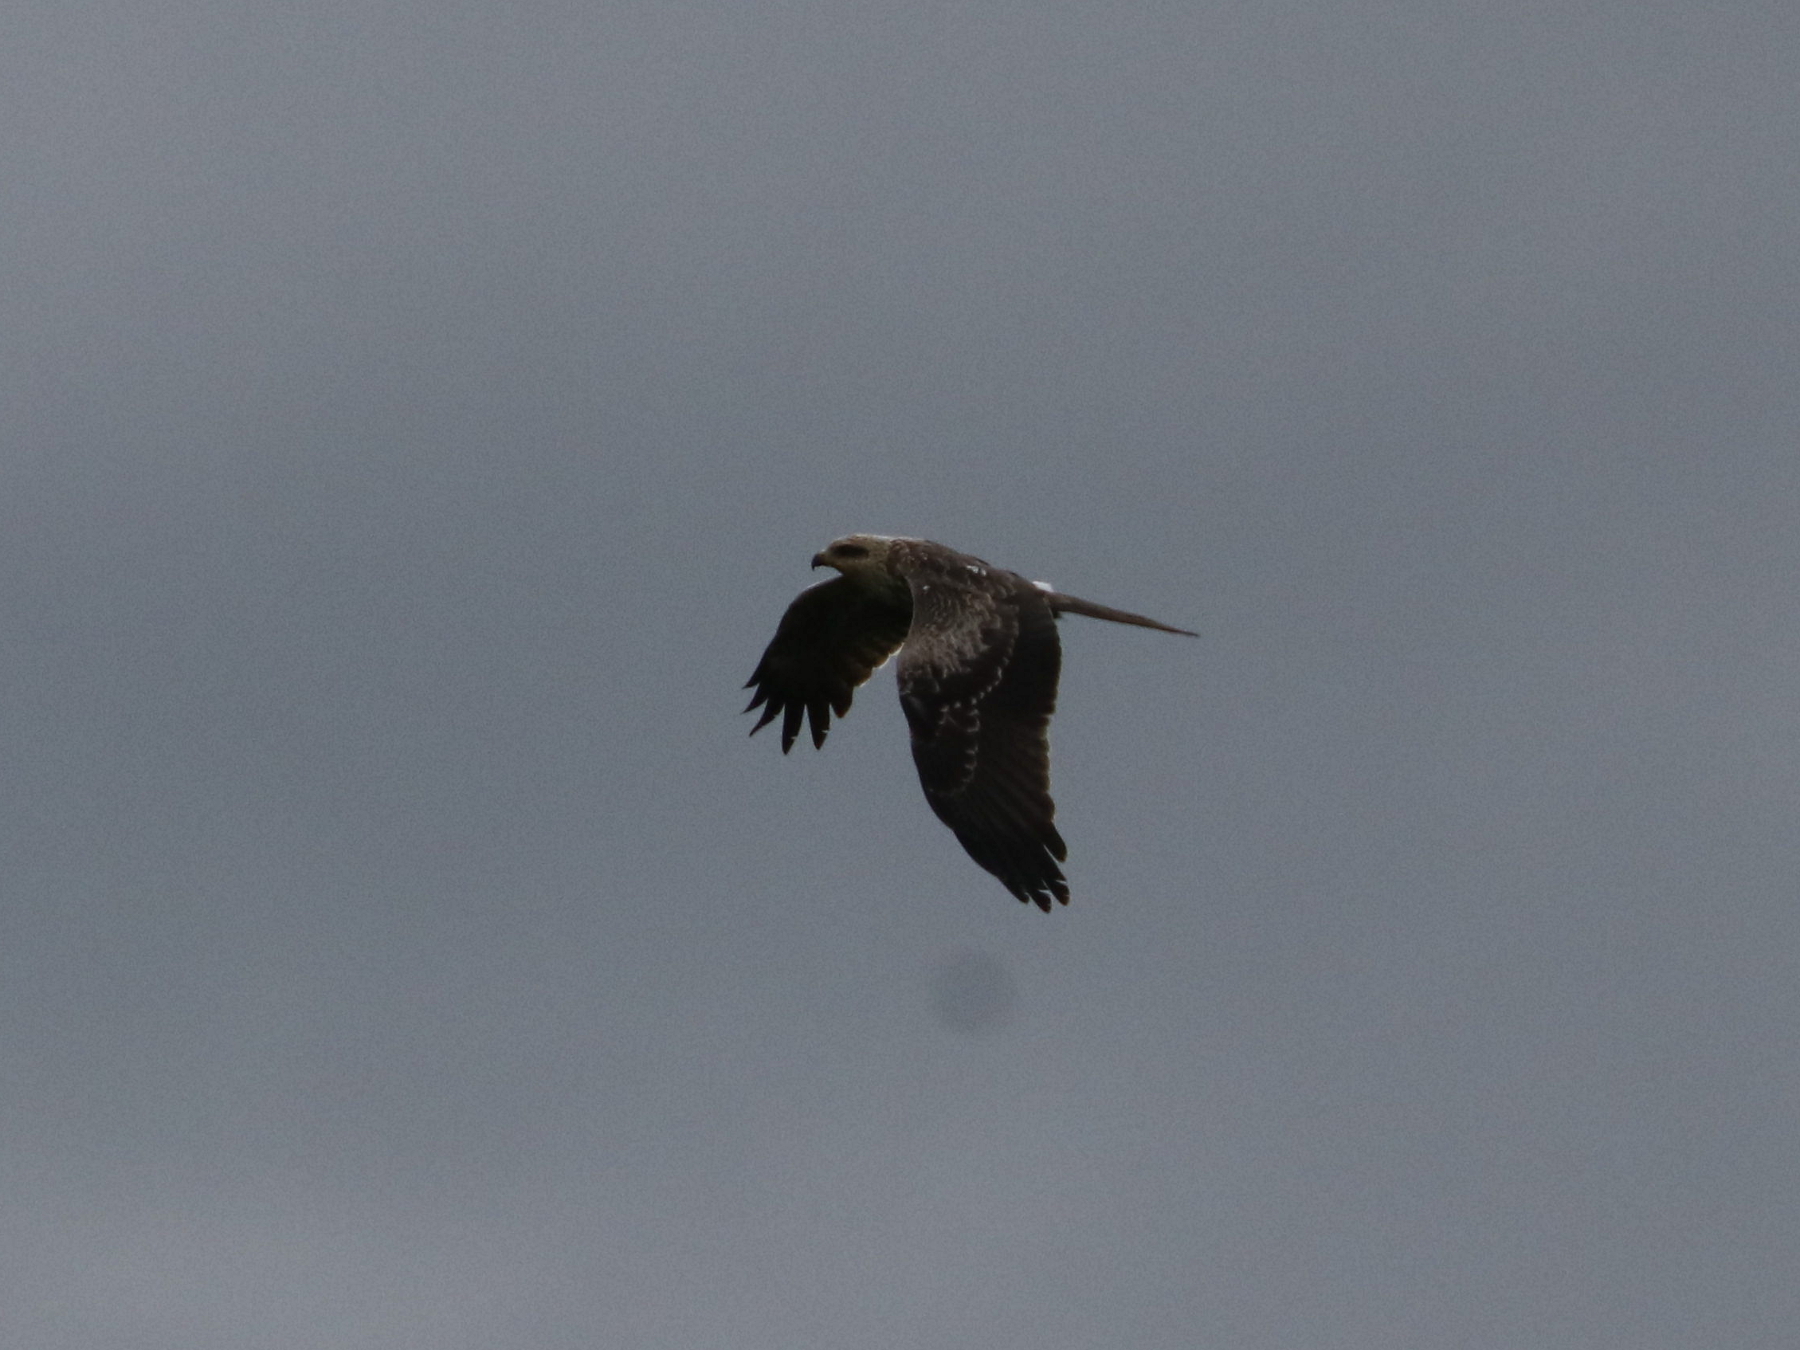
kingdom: Animalia
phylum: Chordata
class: Aves
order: Accipitriformes
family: Accipitridae
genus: Milvus
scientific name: Milvus migrans
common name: Black kite
